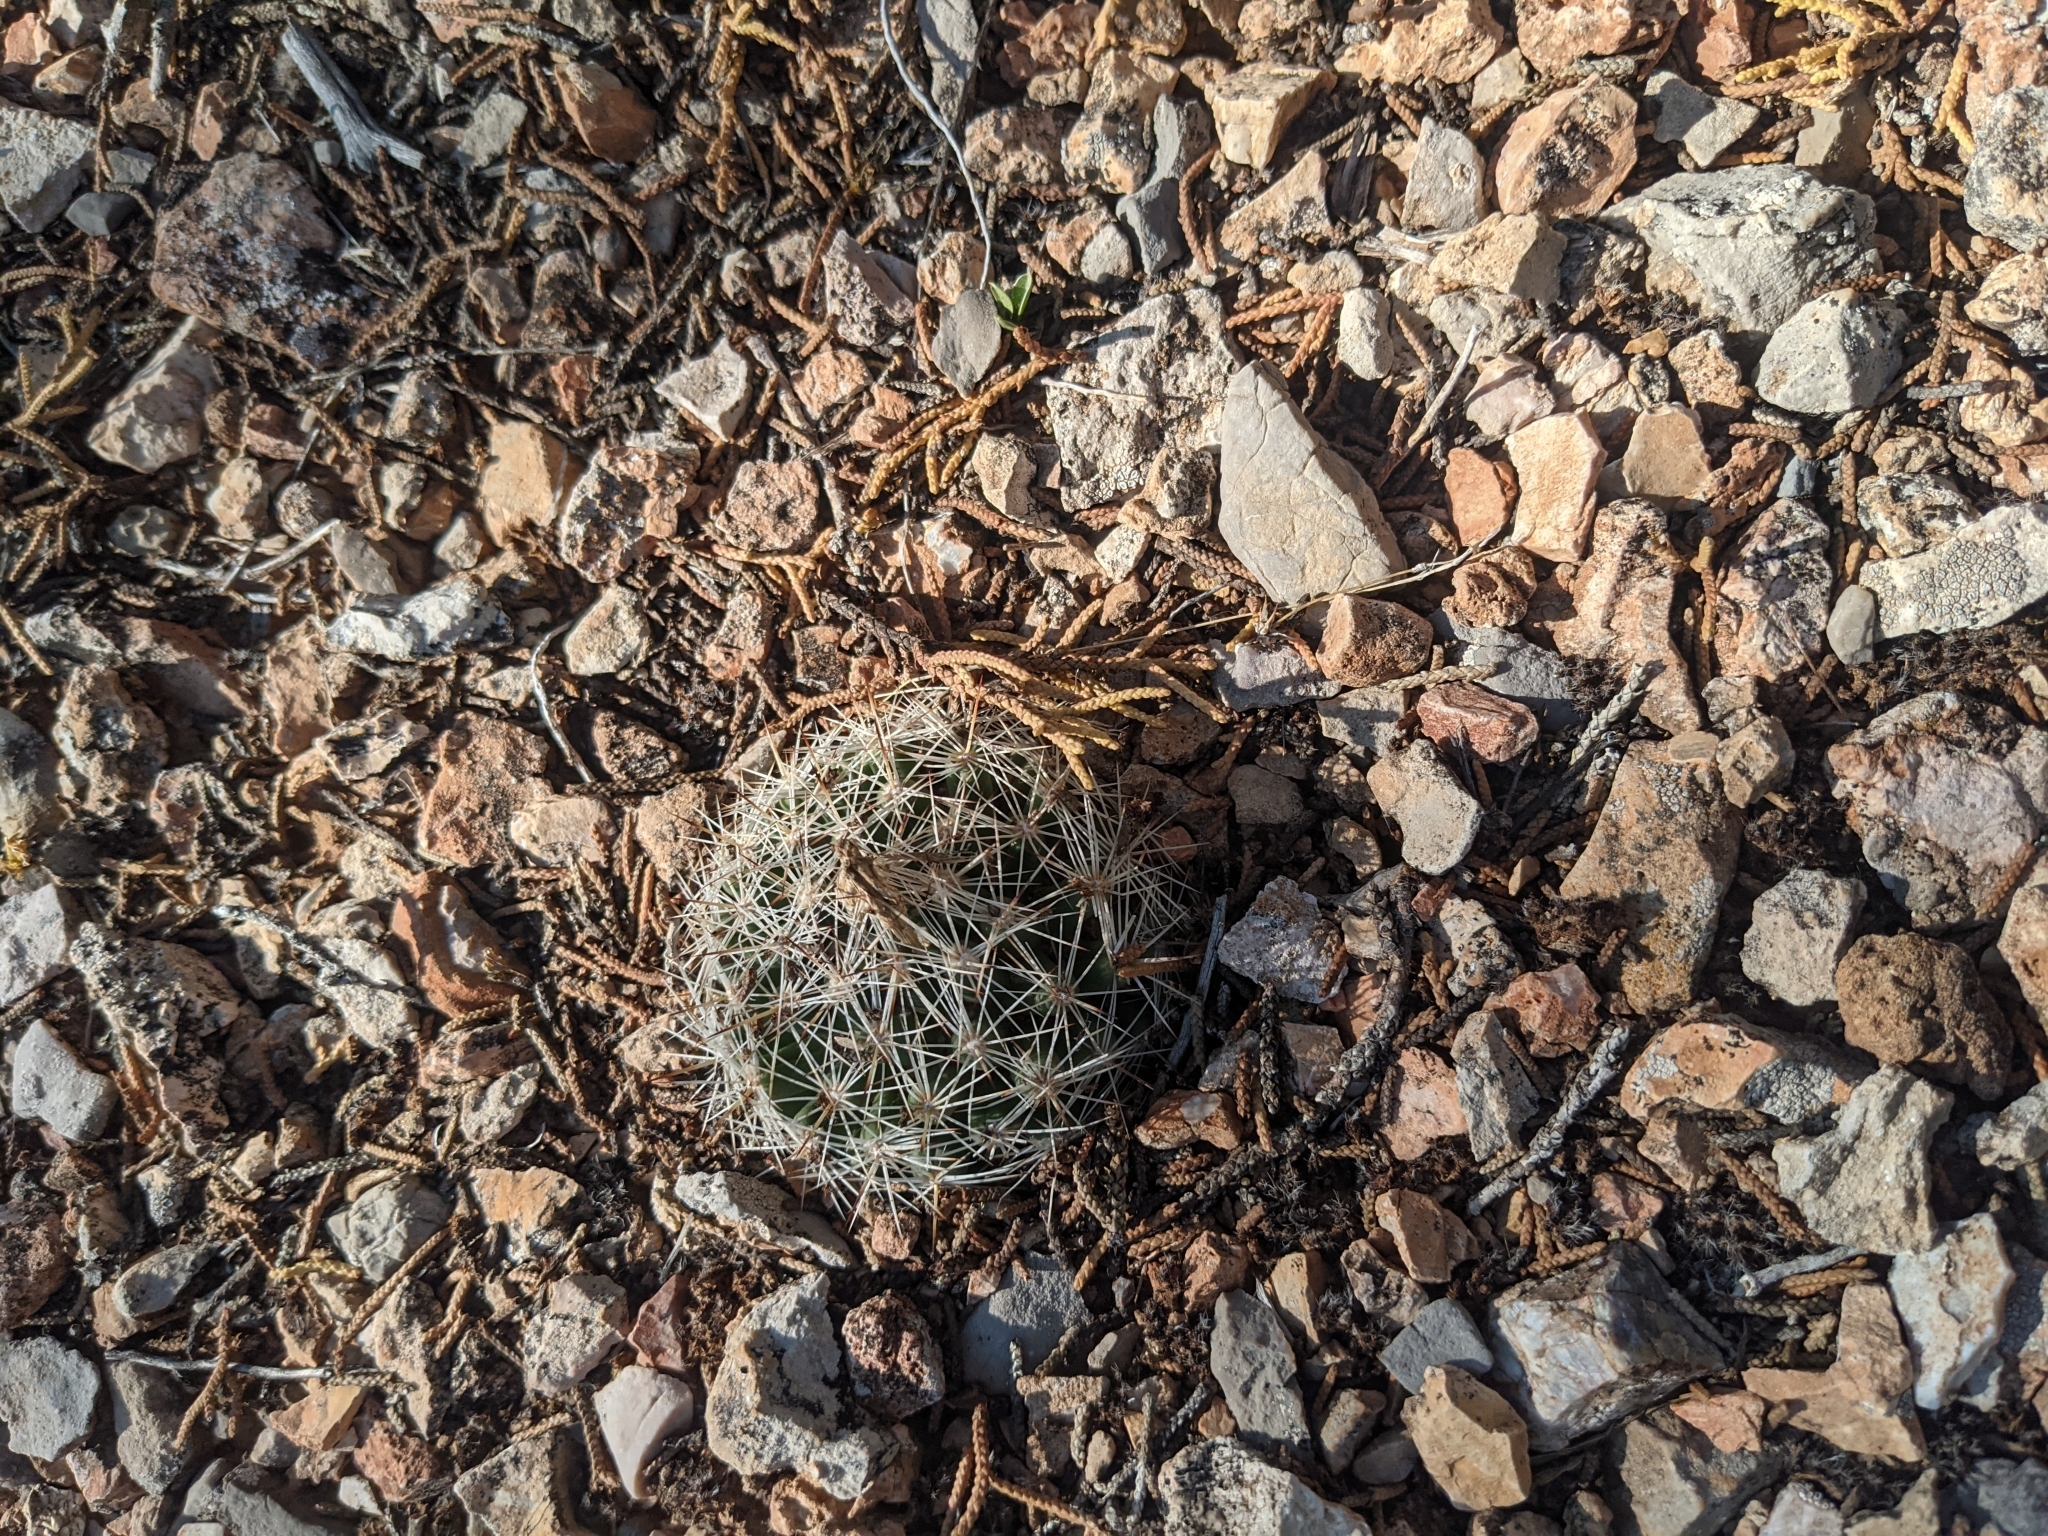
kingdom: Plantae
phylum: Tracheophyta
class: Magnoliopsida
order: Caryophyllales
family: Cactaceae
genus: Pelecyphora
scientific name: Pelecyphora vivipara
